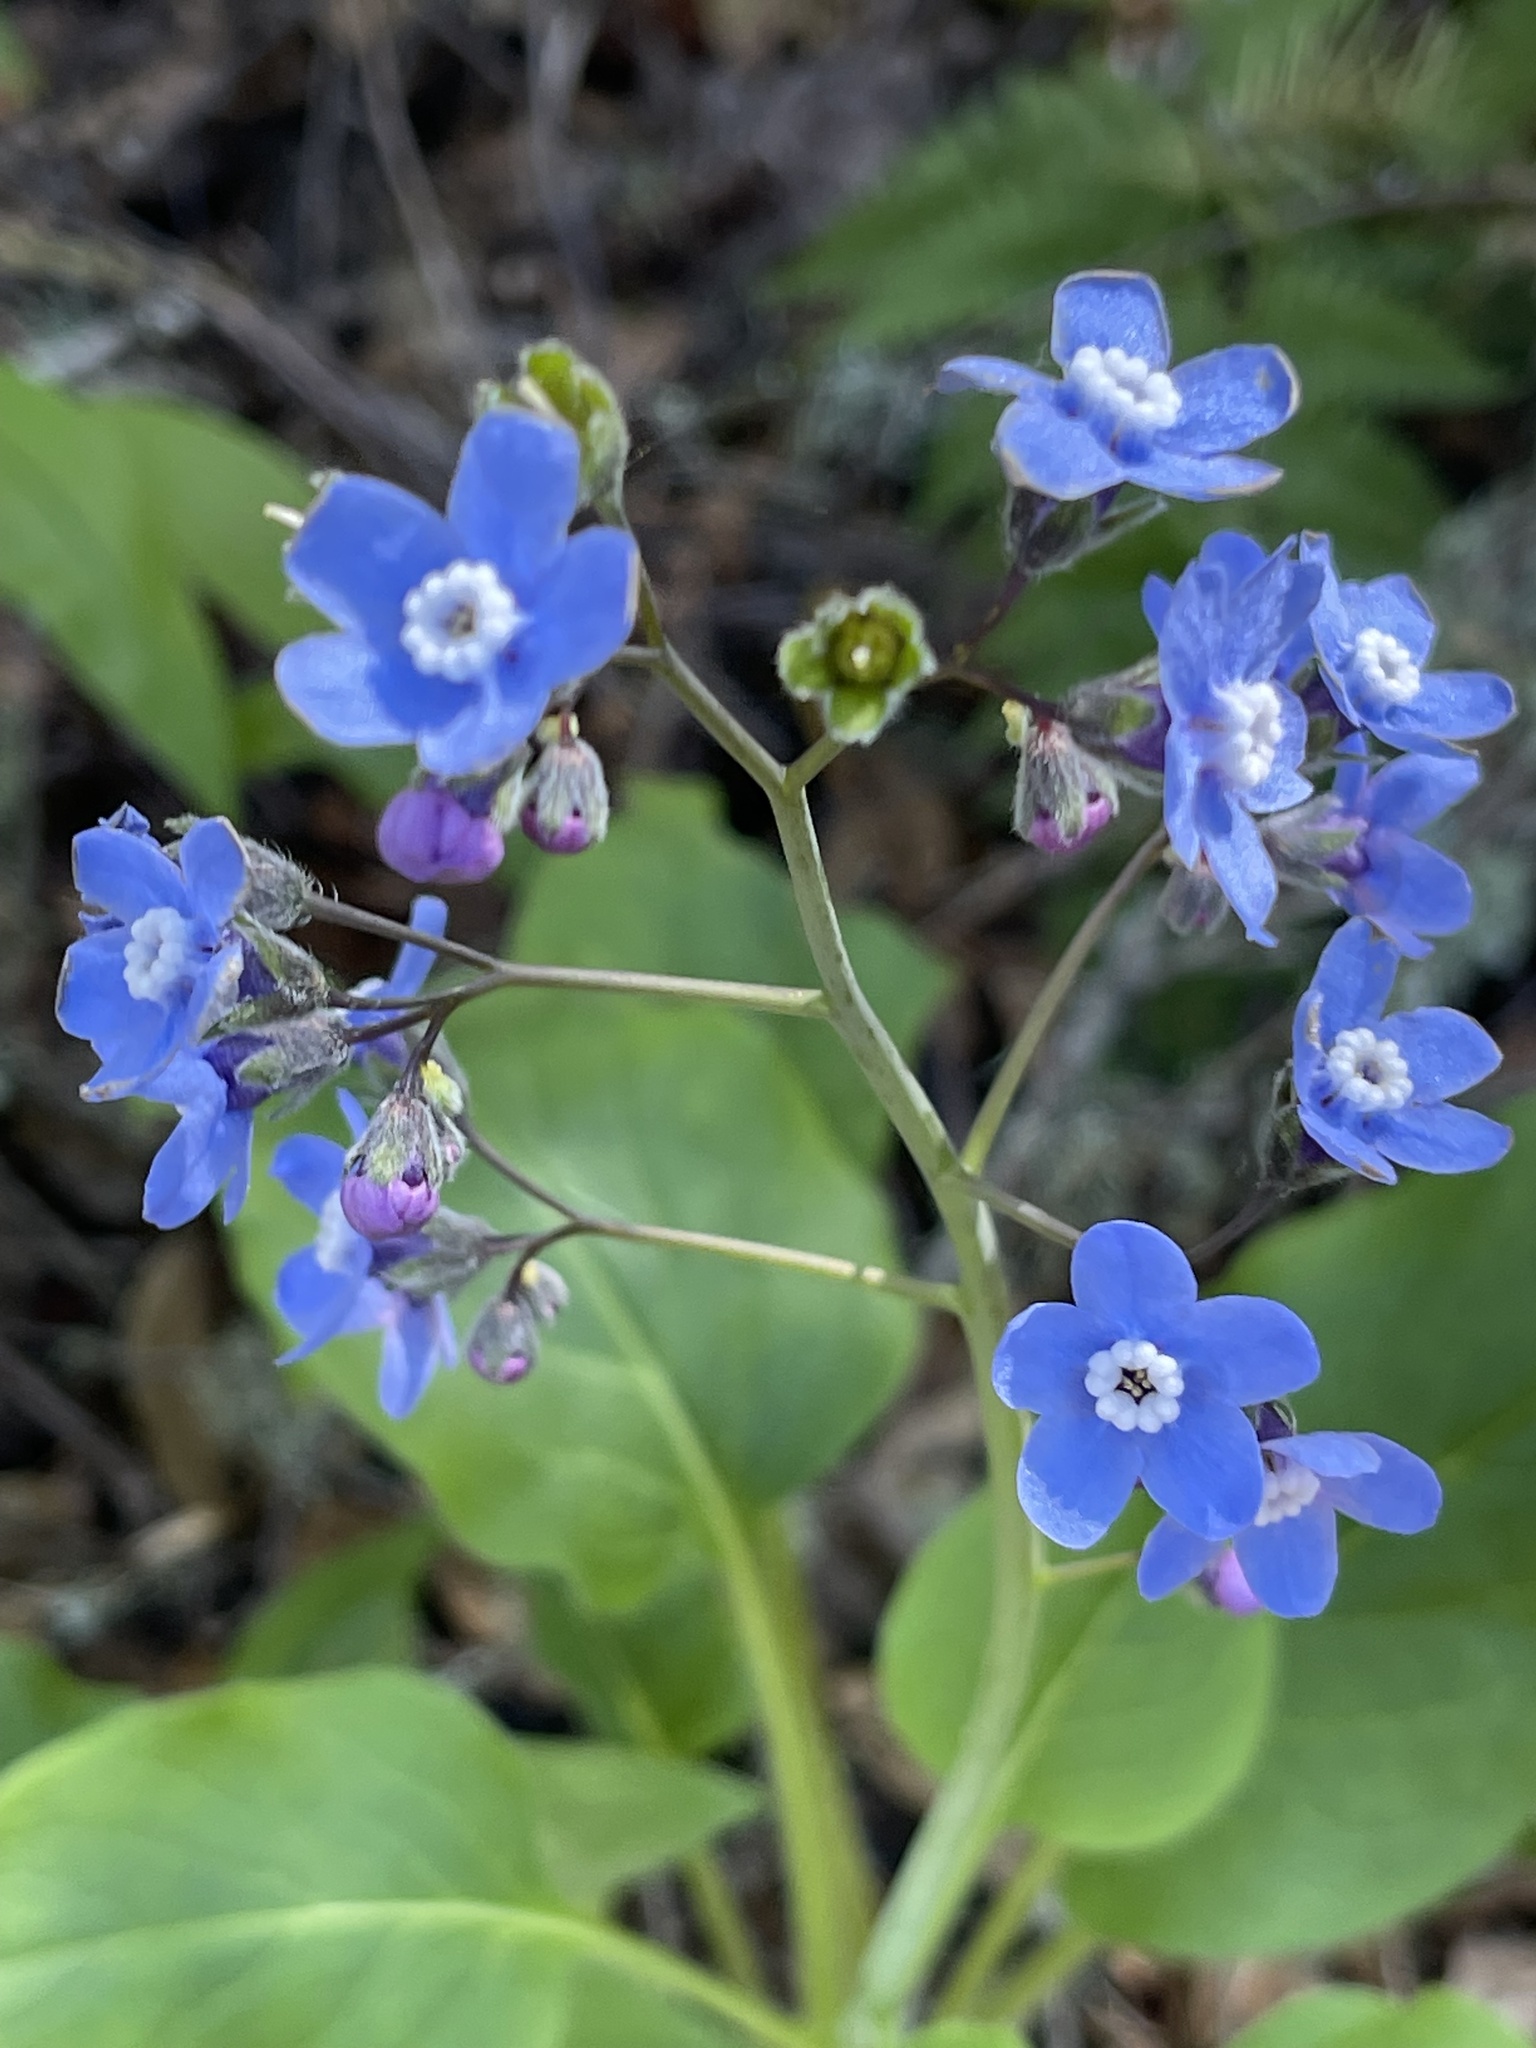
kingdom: Plantae
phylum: Tracheophyta
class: Magnoliopsida
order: Boraginales
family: Boraginaceae
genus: Adelinia
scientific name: Adelinia grande
